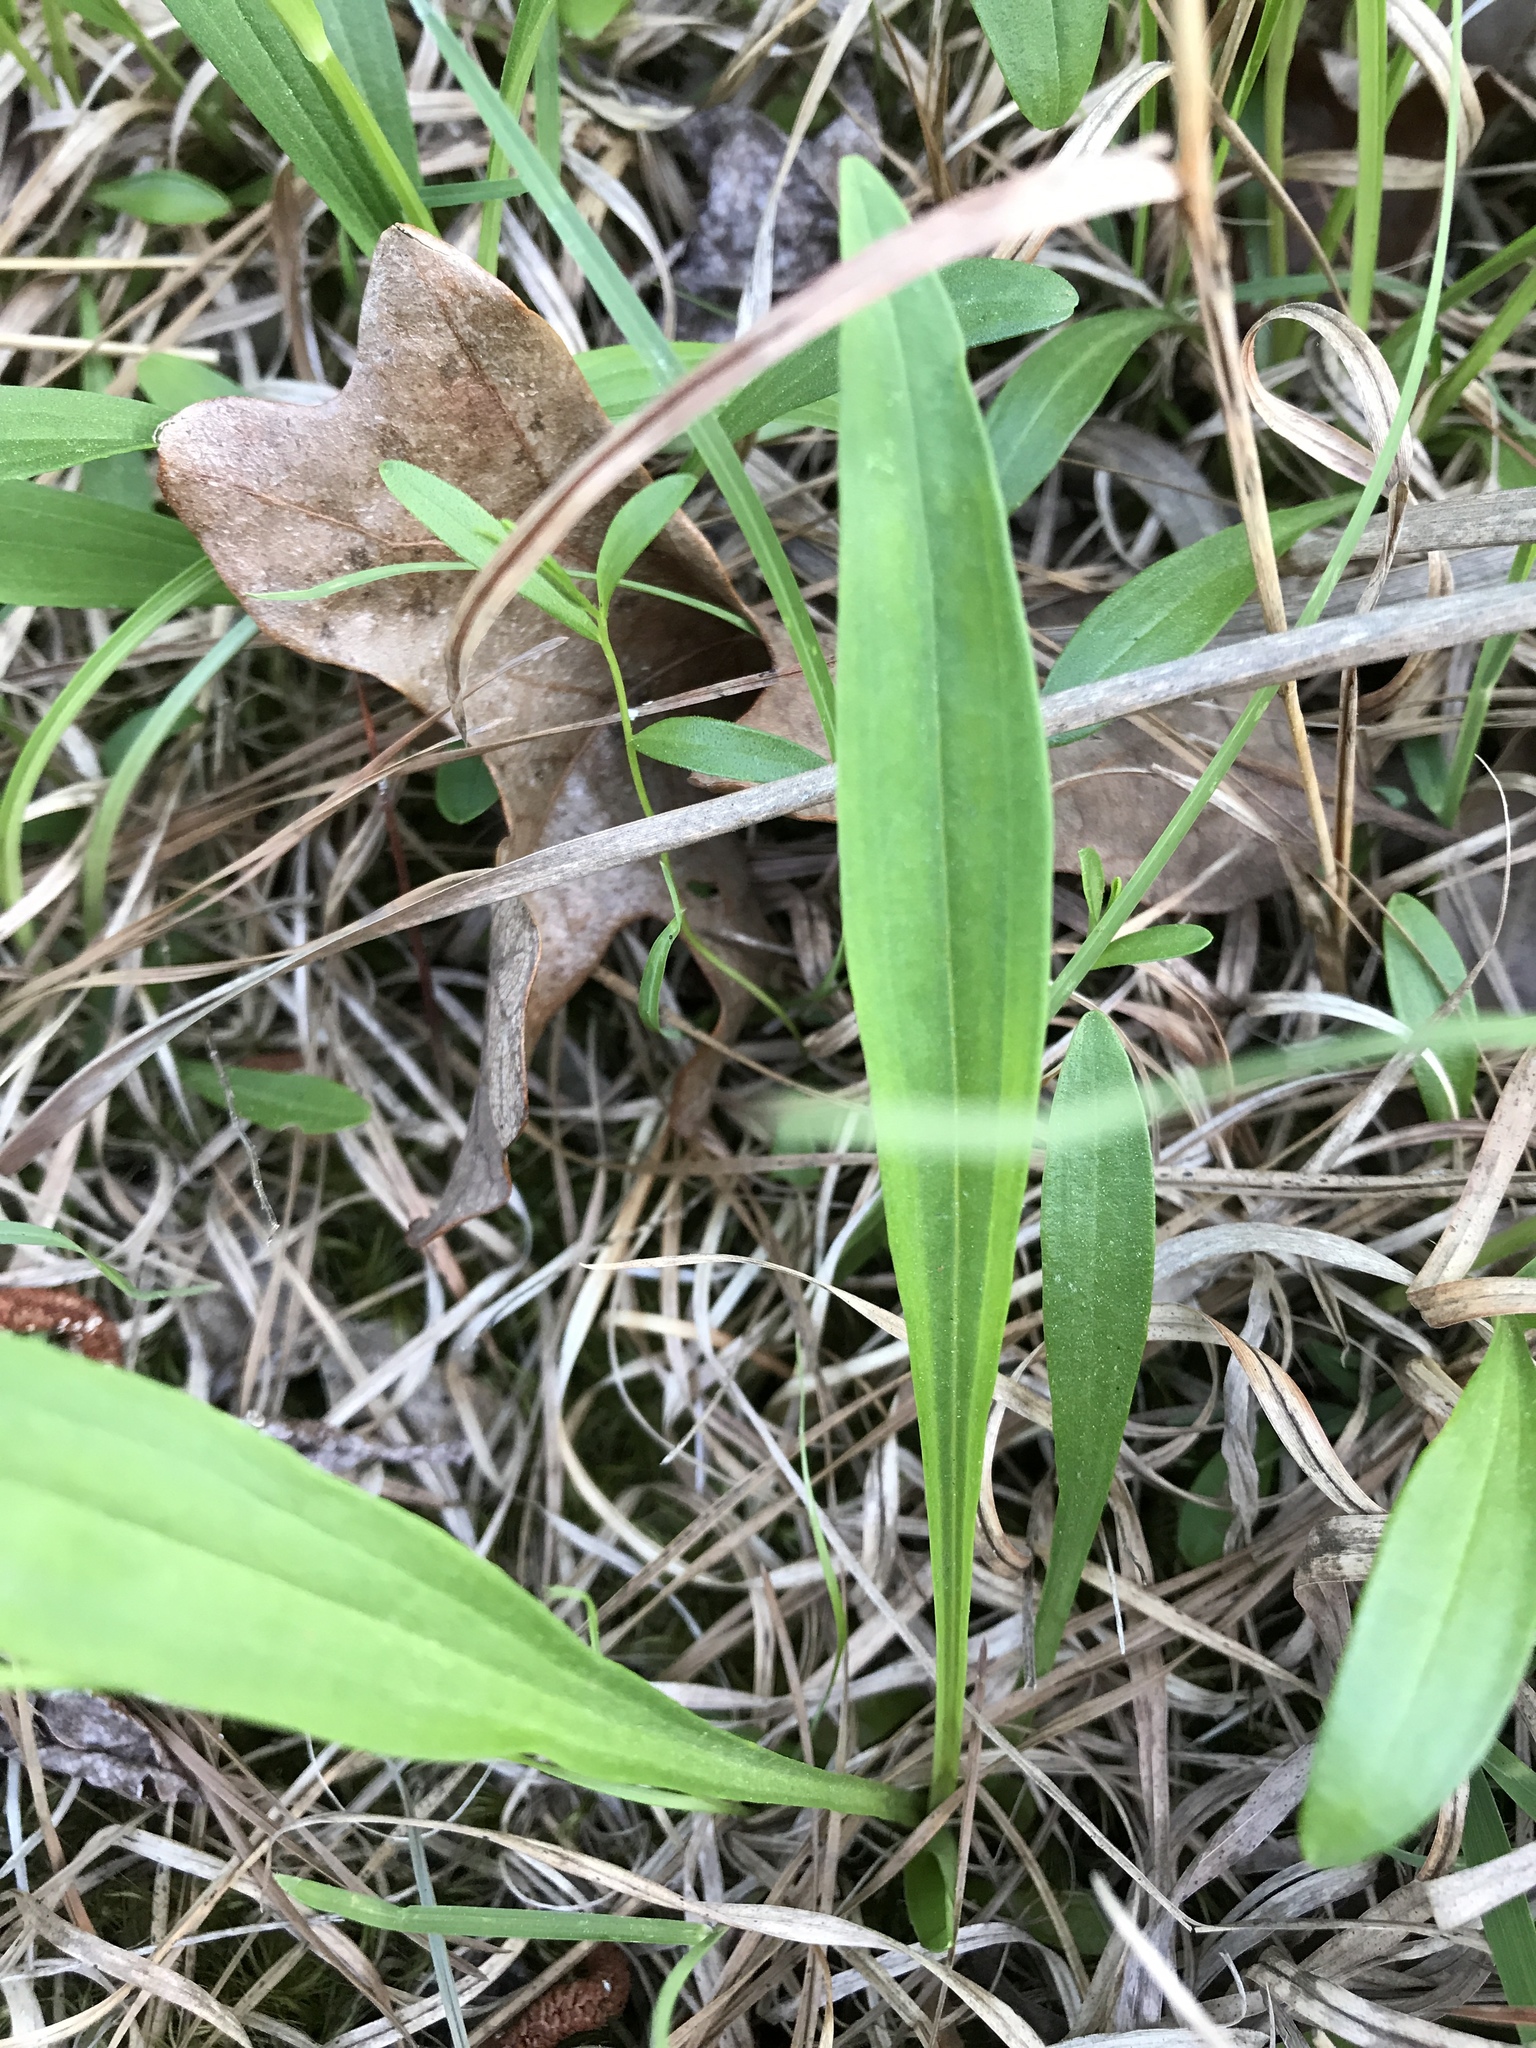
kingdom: Plantae
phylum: Tracheophyta
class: Magnoliopsida
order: Asterales
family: Asteraceae
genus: Marshallia
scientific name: Marshallia obovata
